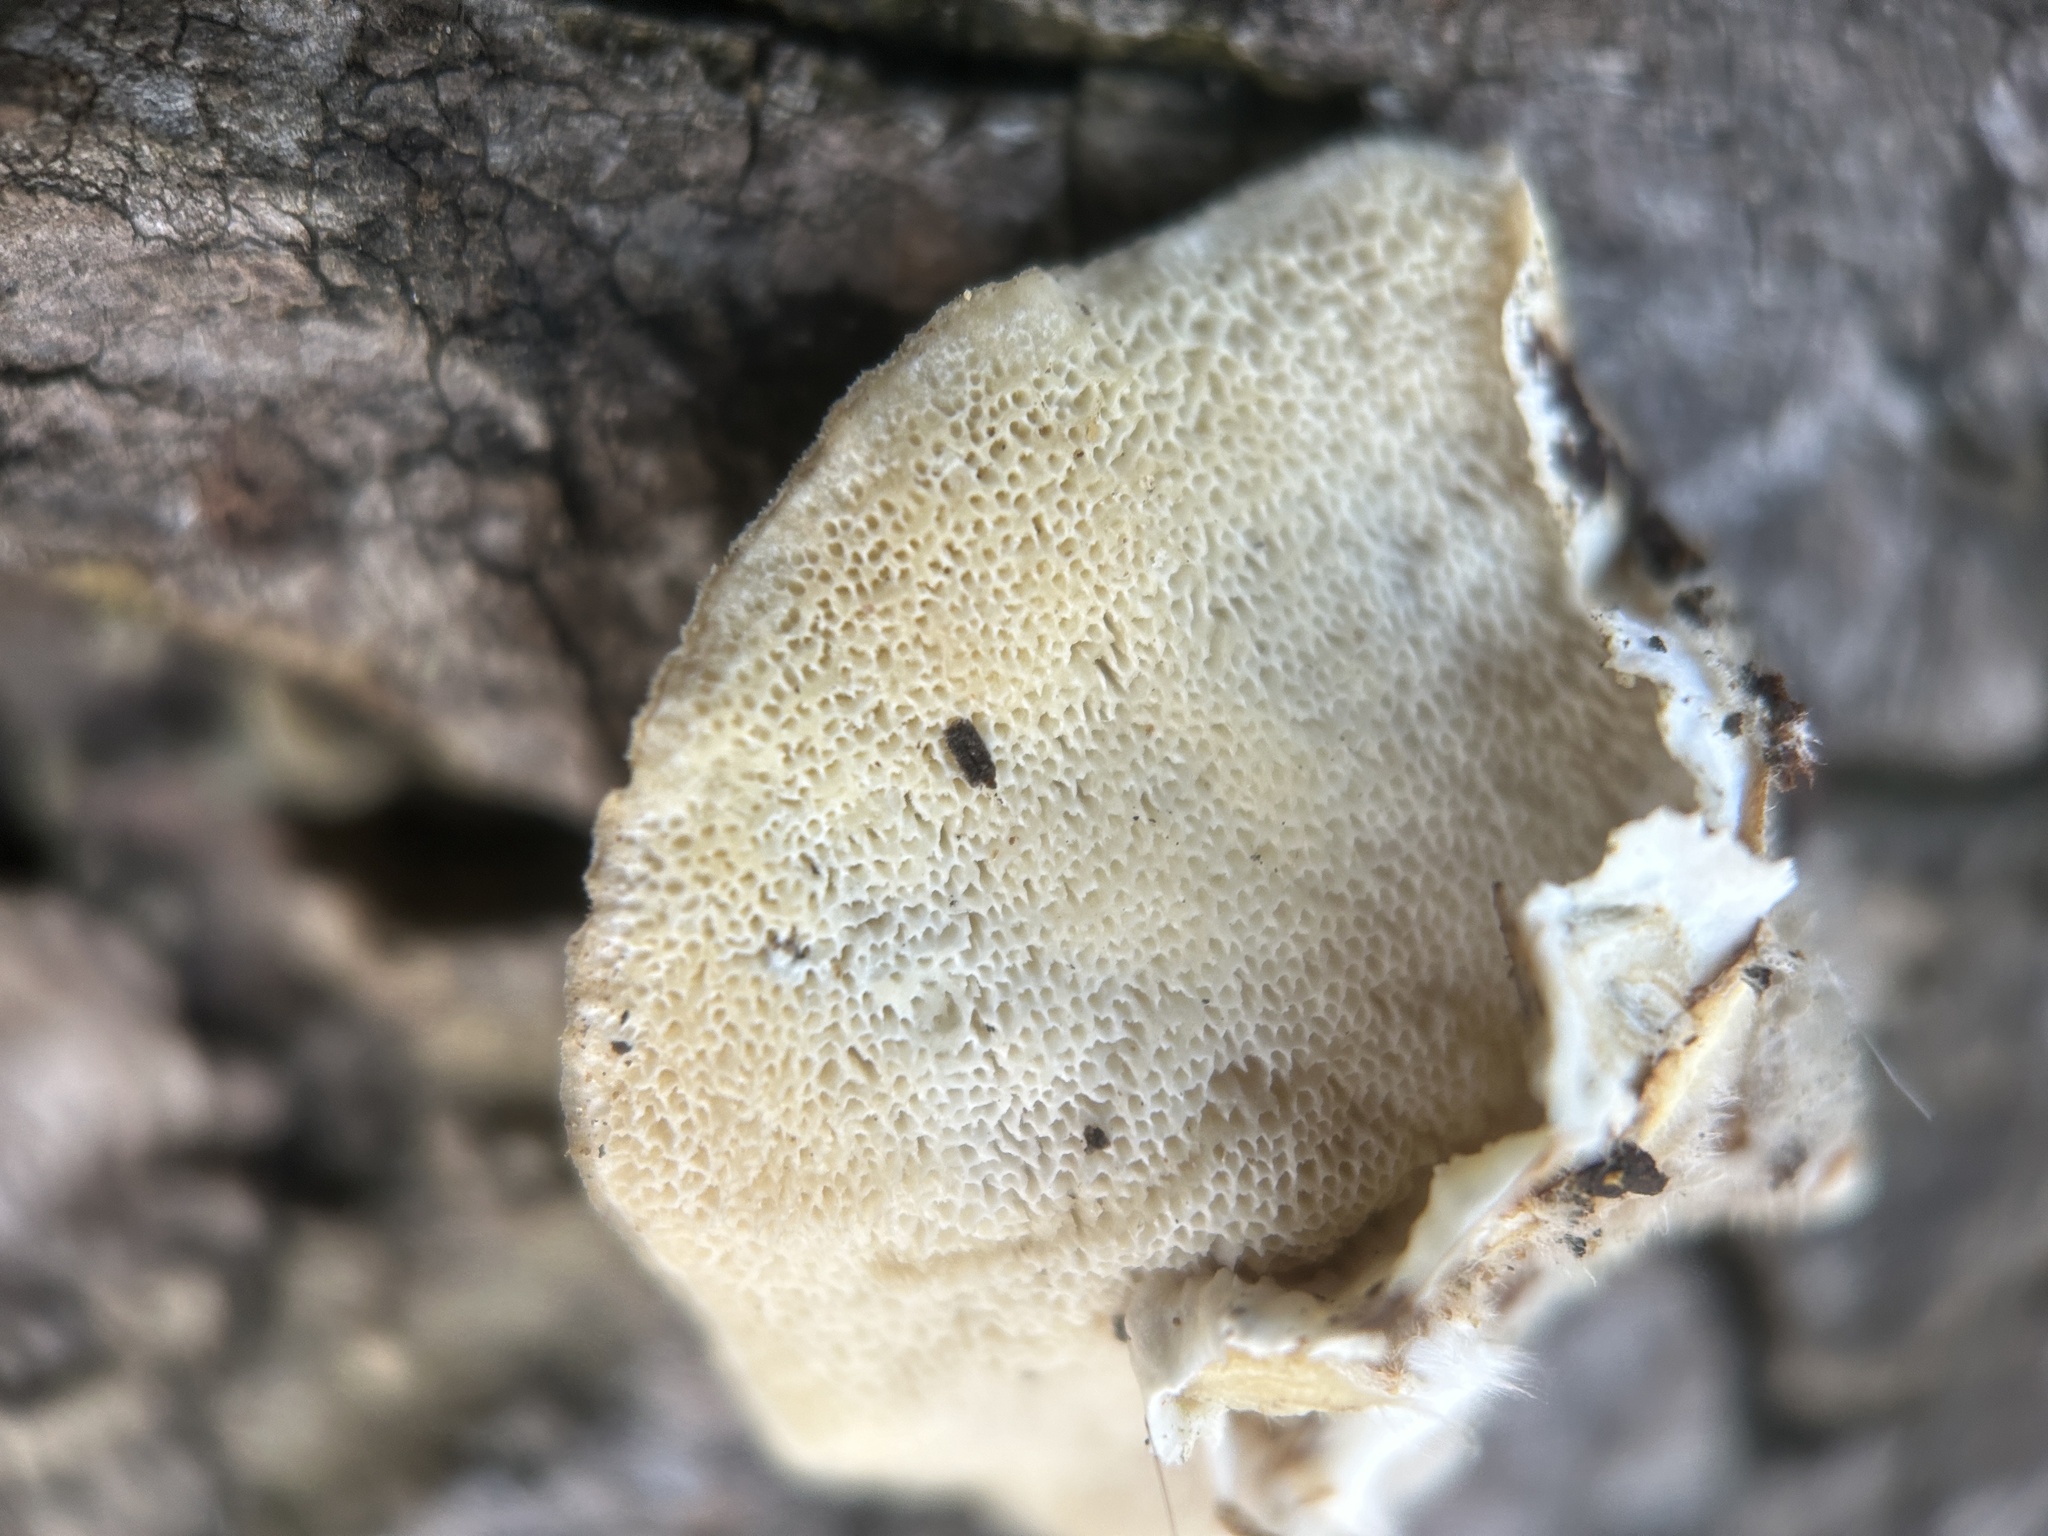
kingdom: Fungi
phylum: Basidiomycota
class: Agaricomycetes
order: Polyporales
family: Polyporaceae
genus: Trametes
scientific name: Trametes versicolor
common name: Turkeytail
